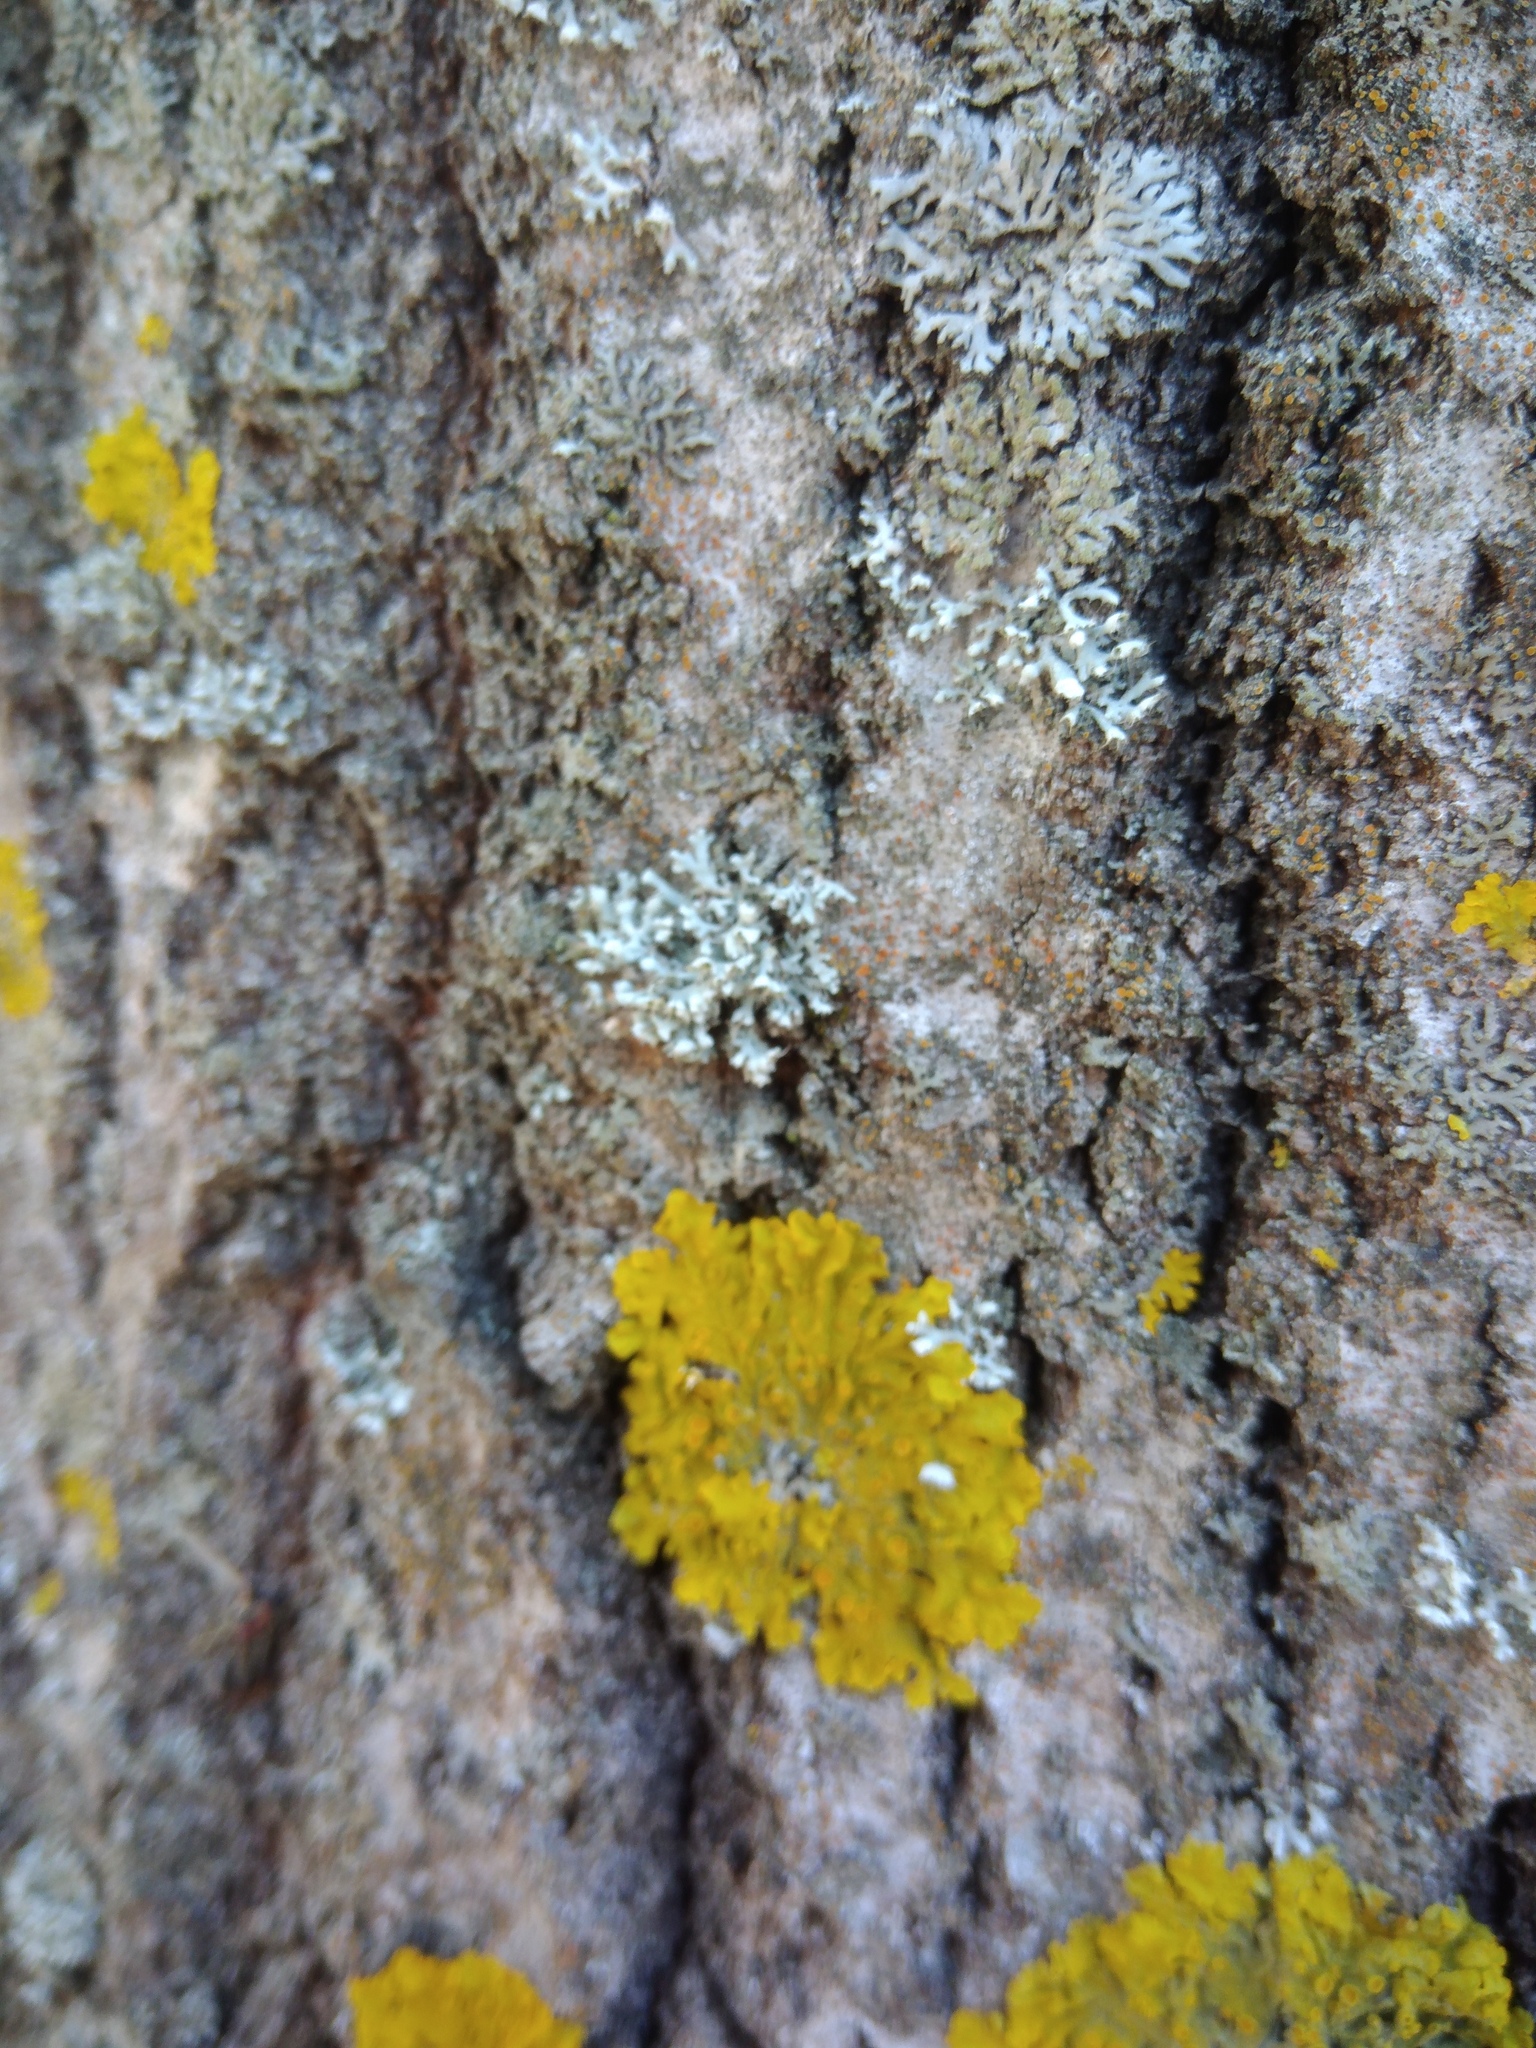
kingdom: Fungi
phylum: Ascomycota
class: Lecanoromycetes
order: Caliciales
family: Physciaceae
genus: Physcia
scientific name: Physcia adscendens
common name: Hooded rosette lichen
